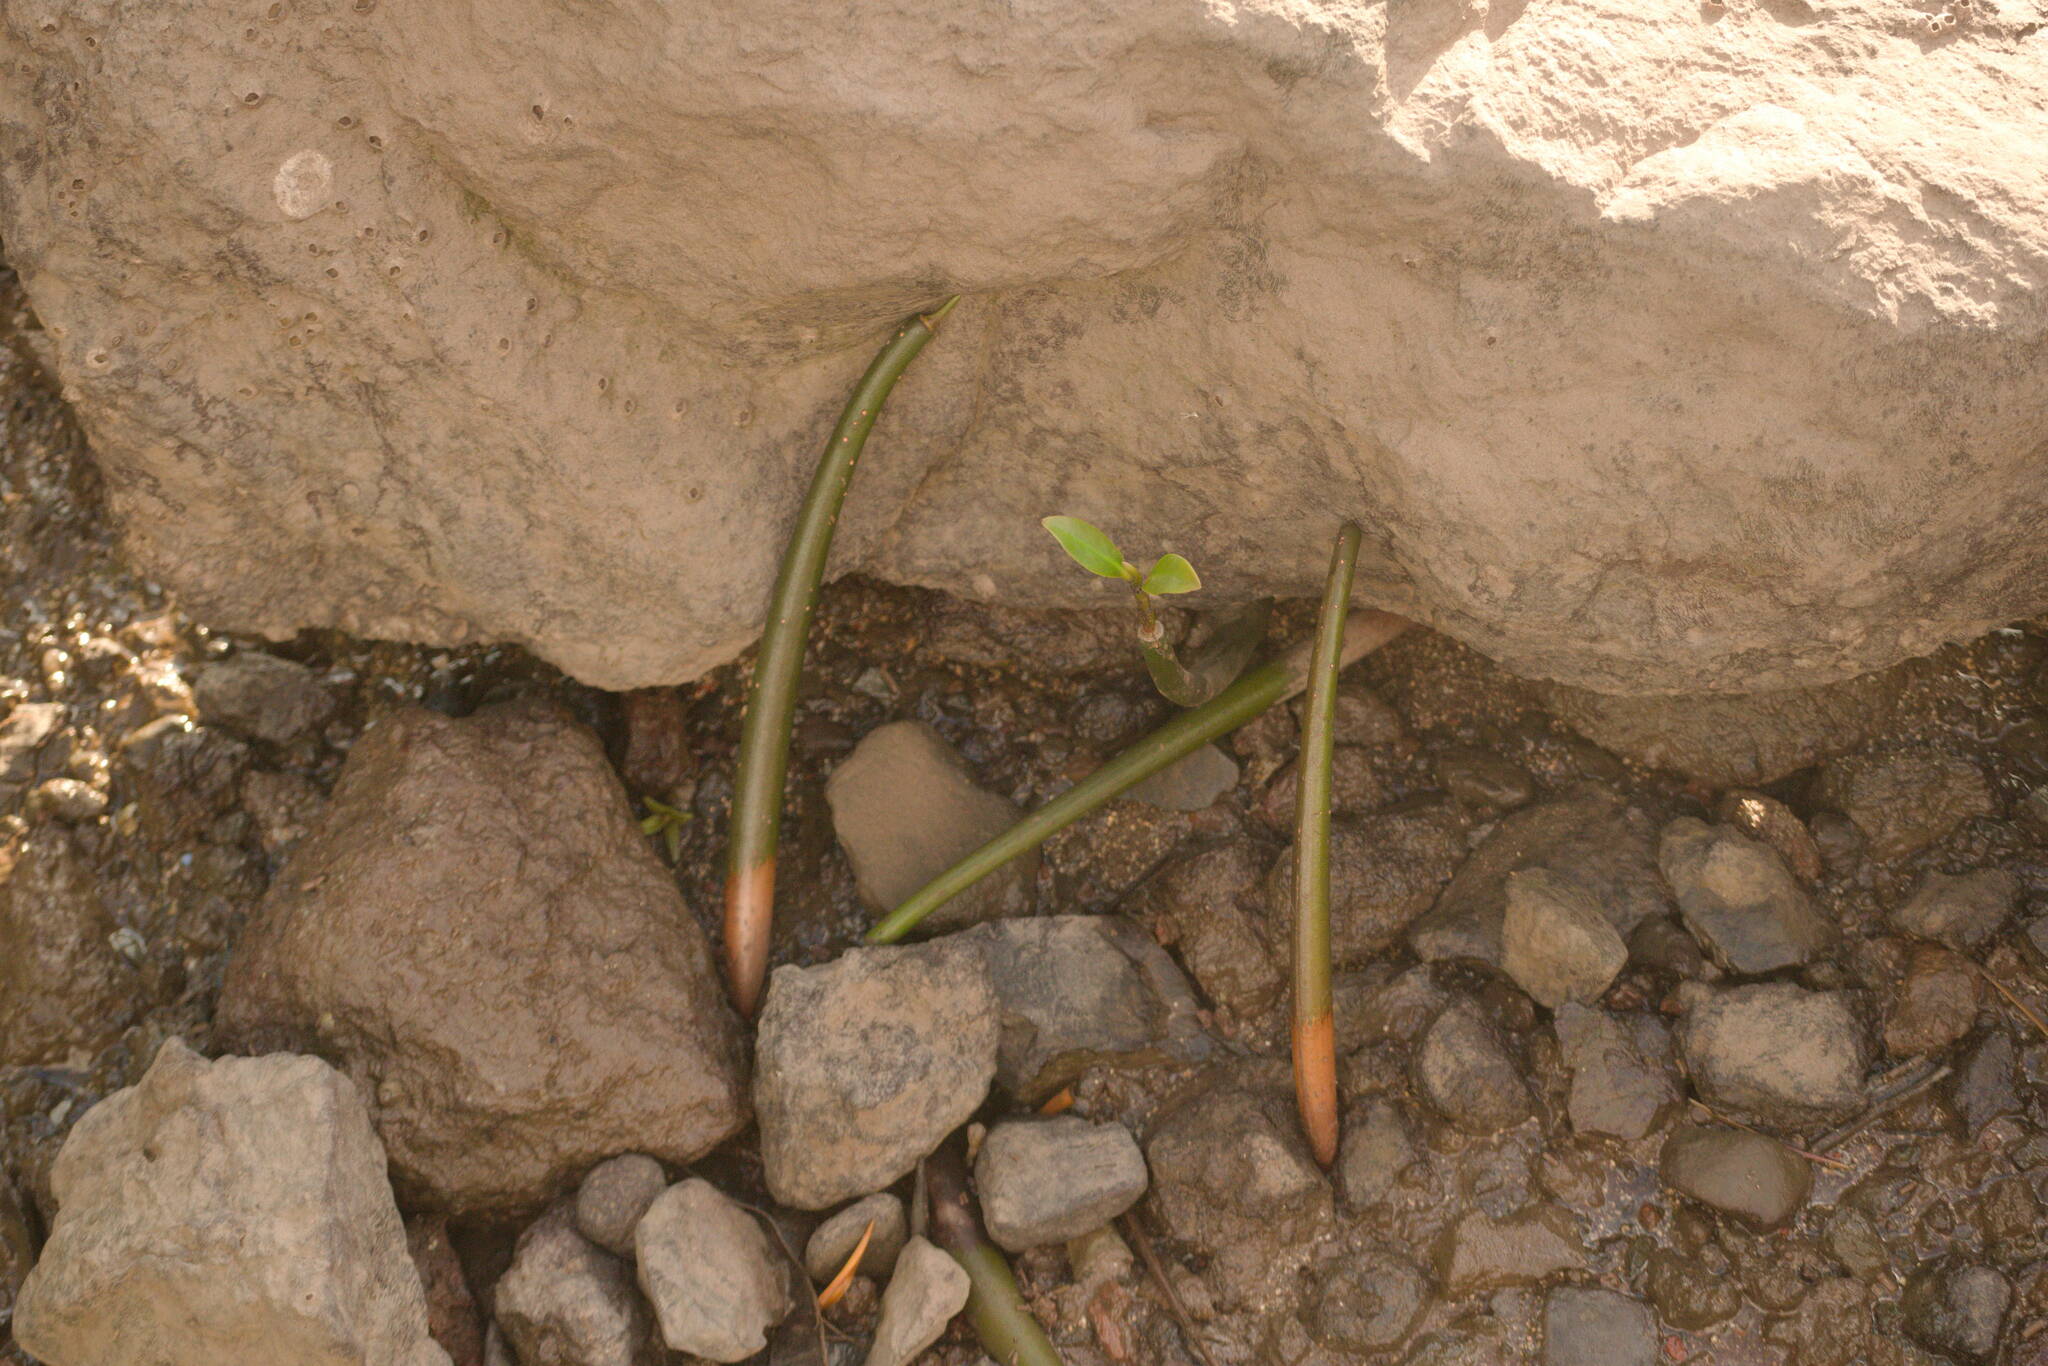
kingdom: Plantae
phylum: Tracheophyta
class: Magnoliopsida
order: Malpighiales
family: Rhizophoraceae
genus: Rhizophora
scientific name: Rhizophora mangle
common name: Red mangrove
